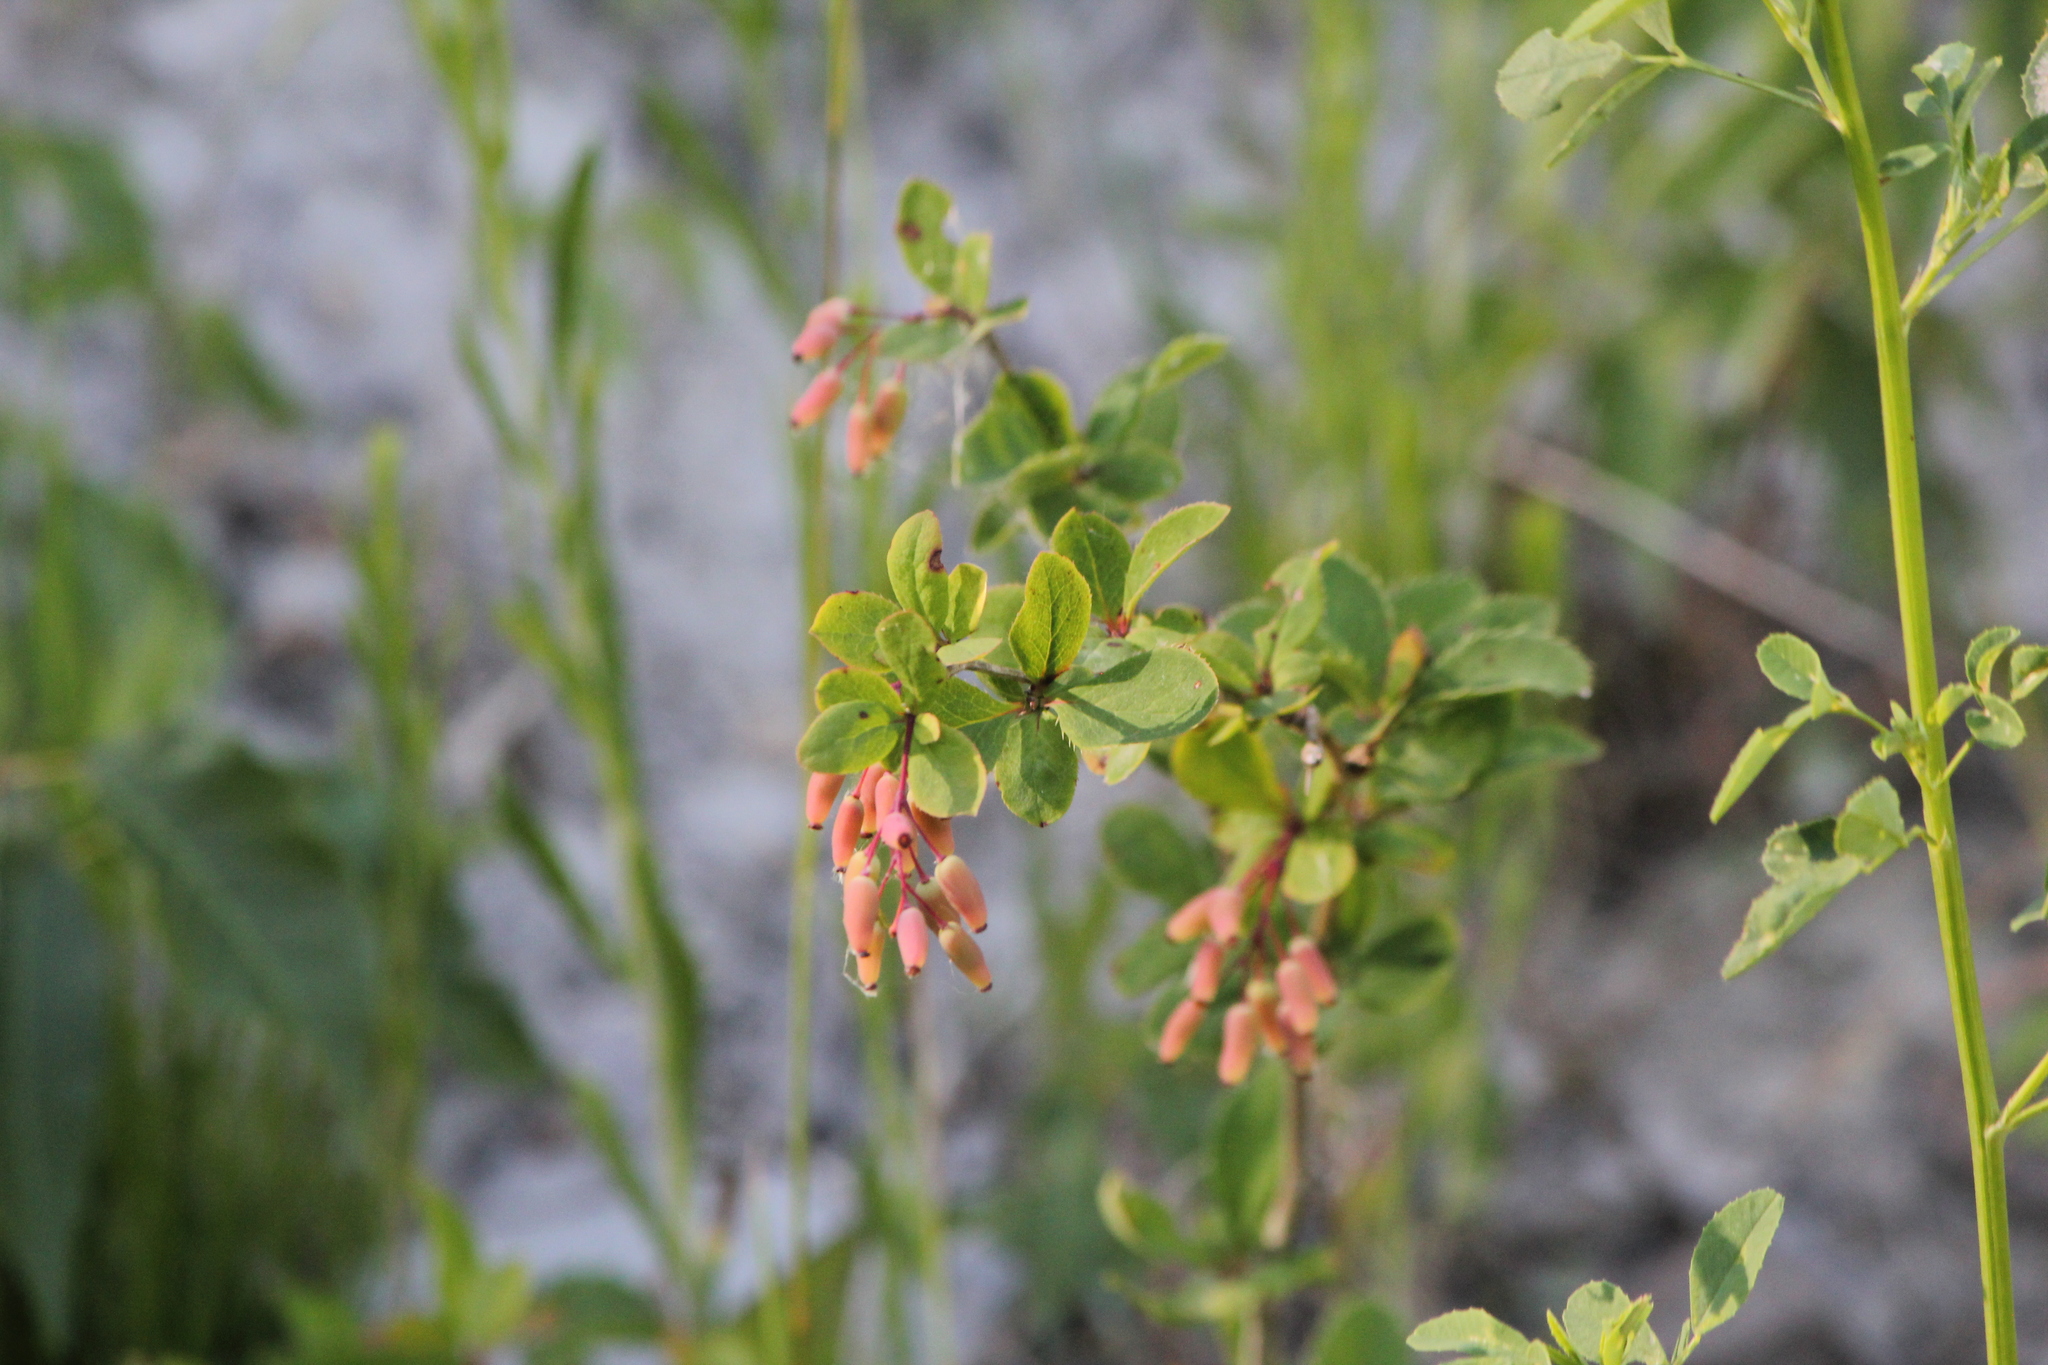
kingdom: Plantae
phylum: Tracheophyta
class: Magnoliopsida
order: Ranunculales
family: Berberidaceae
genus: Berberis
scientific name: Berberis vulgaris
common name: Barberry
